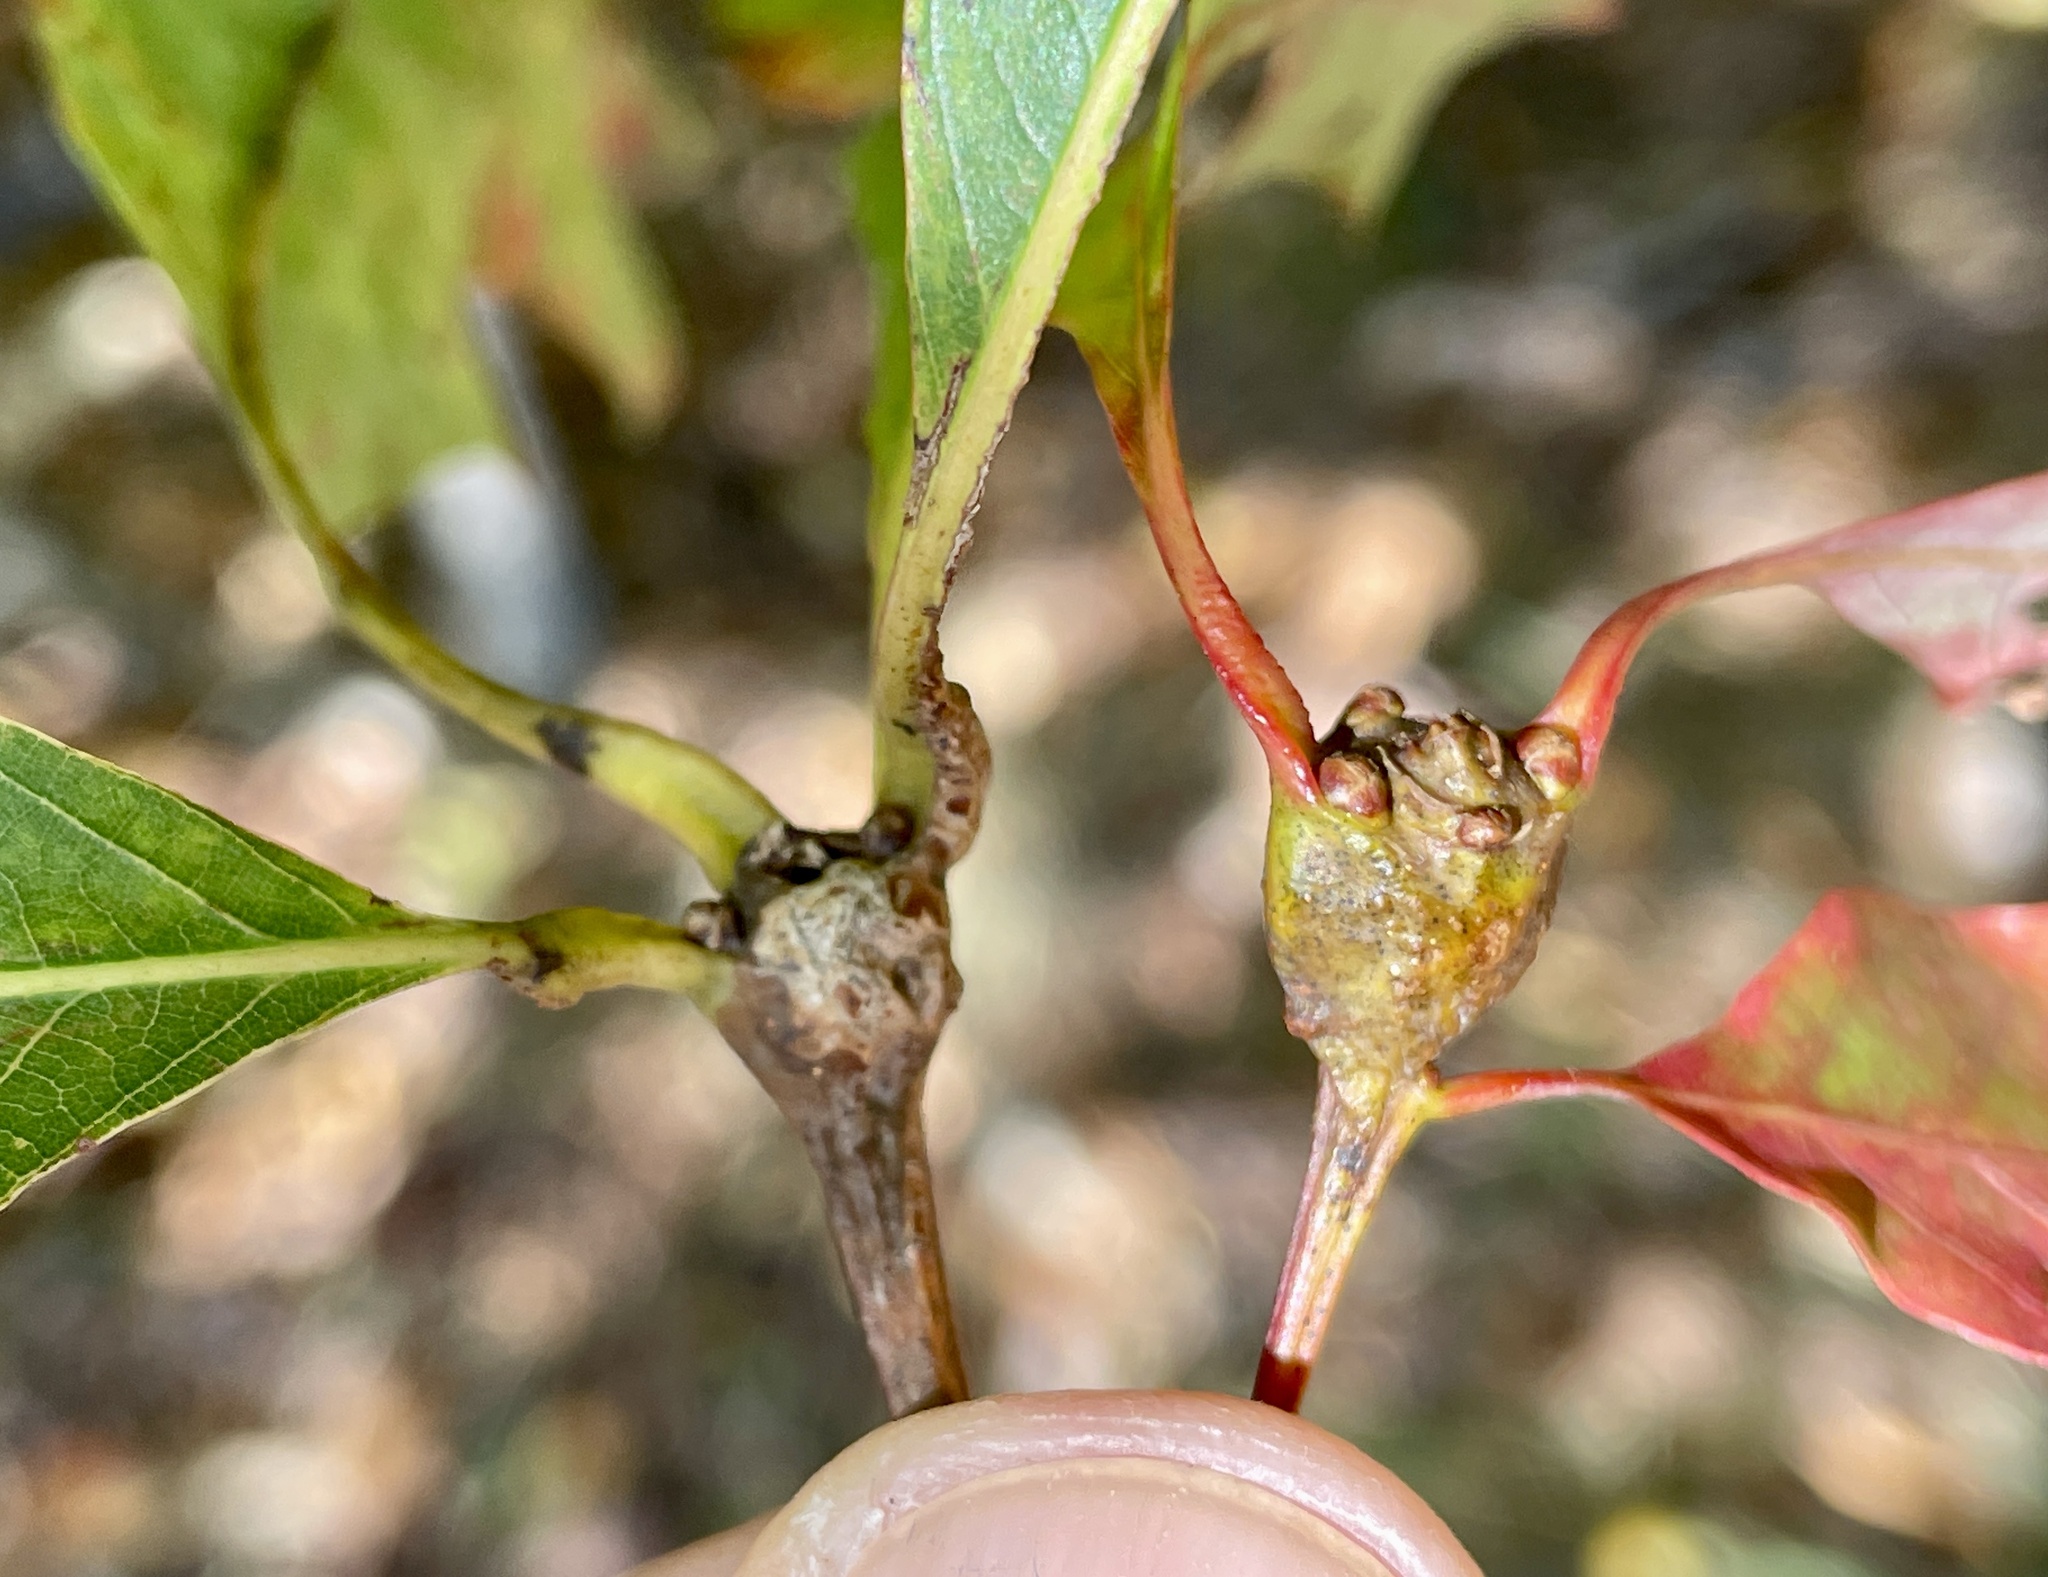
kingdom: Animalia
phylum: Arthropoda
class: Insecta
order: Hymenoptera
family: Cynipidae
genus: Callirhytis
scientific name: Callirhytis clavula
